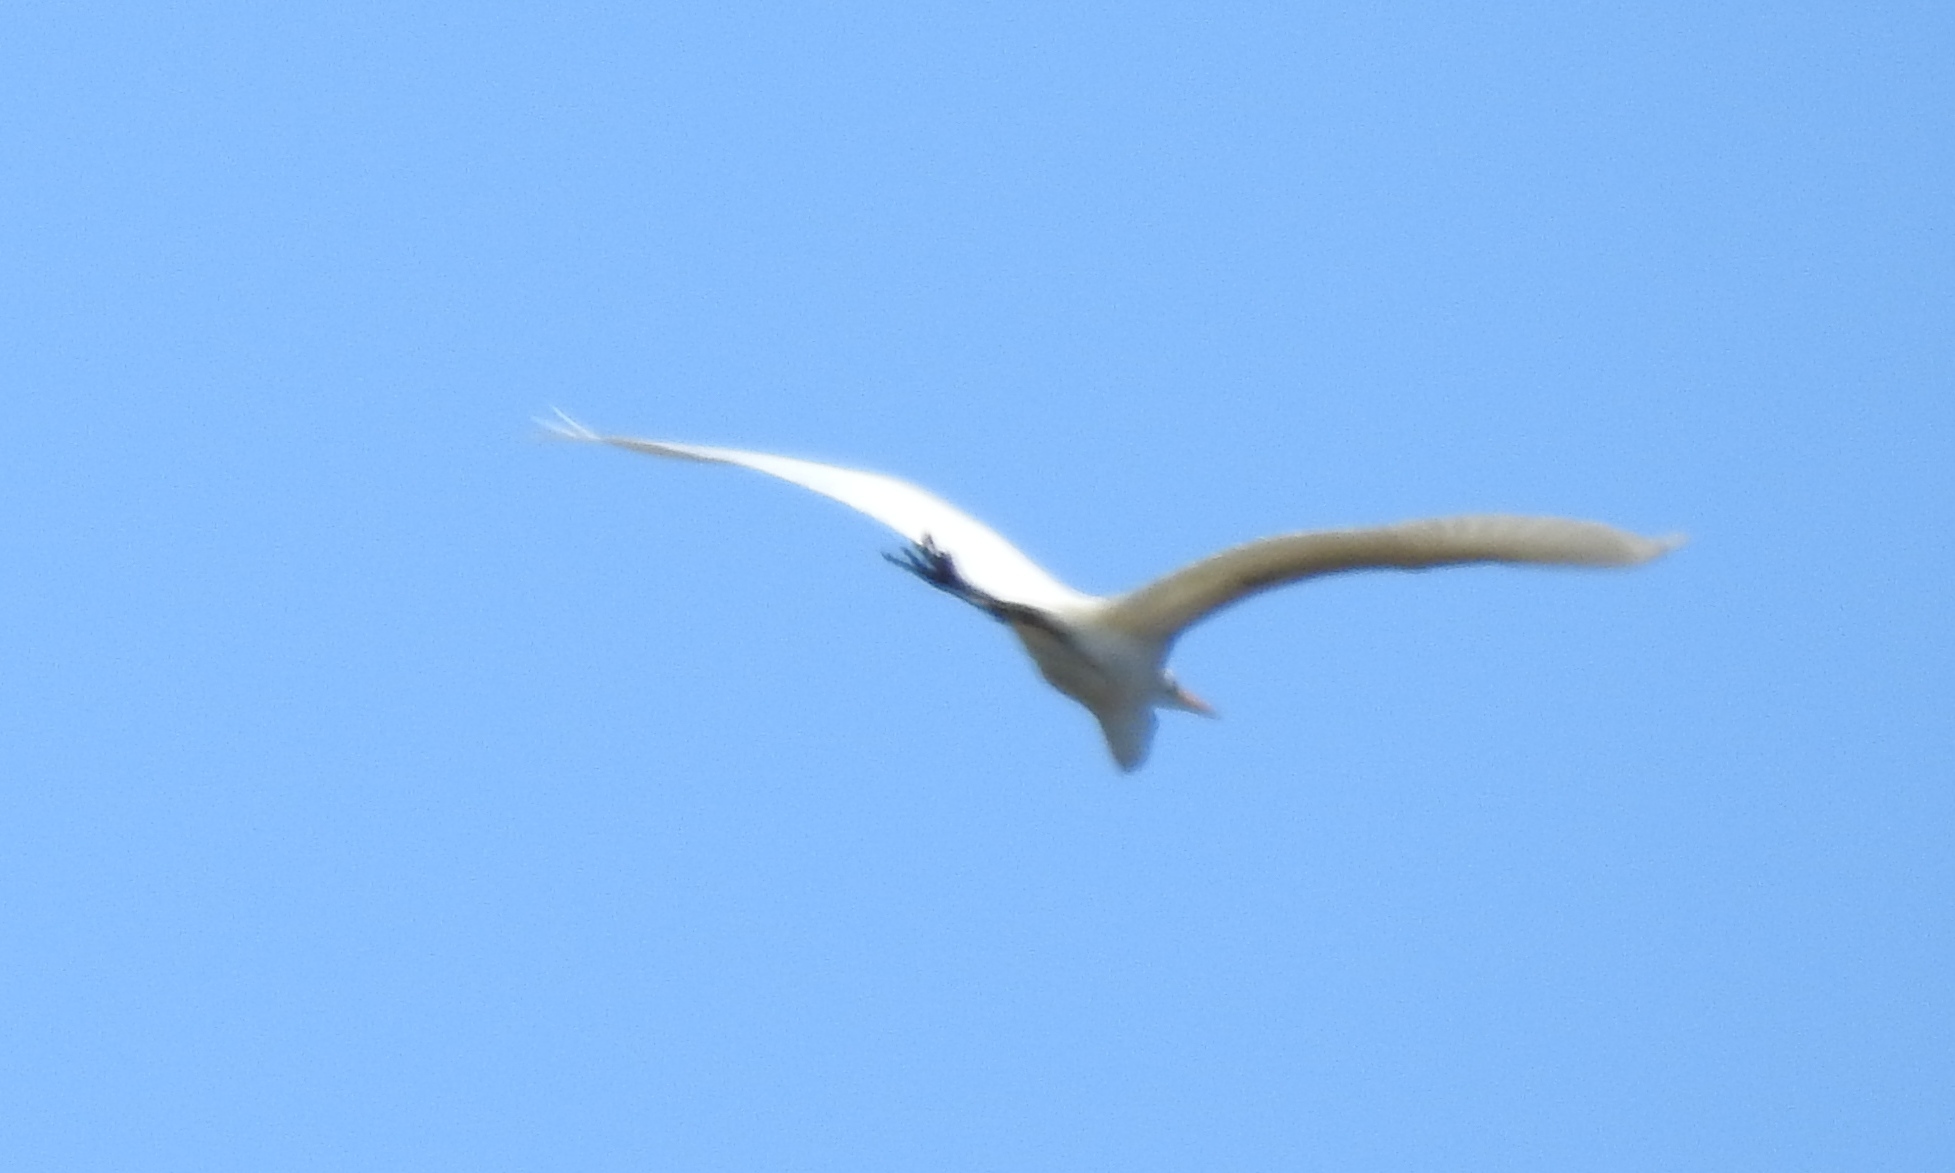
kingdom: Animalia
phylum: Chordata
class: Aves
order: Pelecaniformes
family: Ardeidae
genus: Ardea
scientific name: Ardea alba
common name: Great egret
